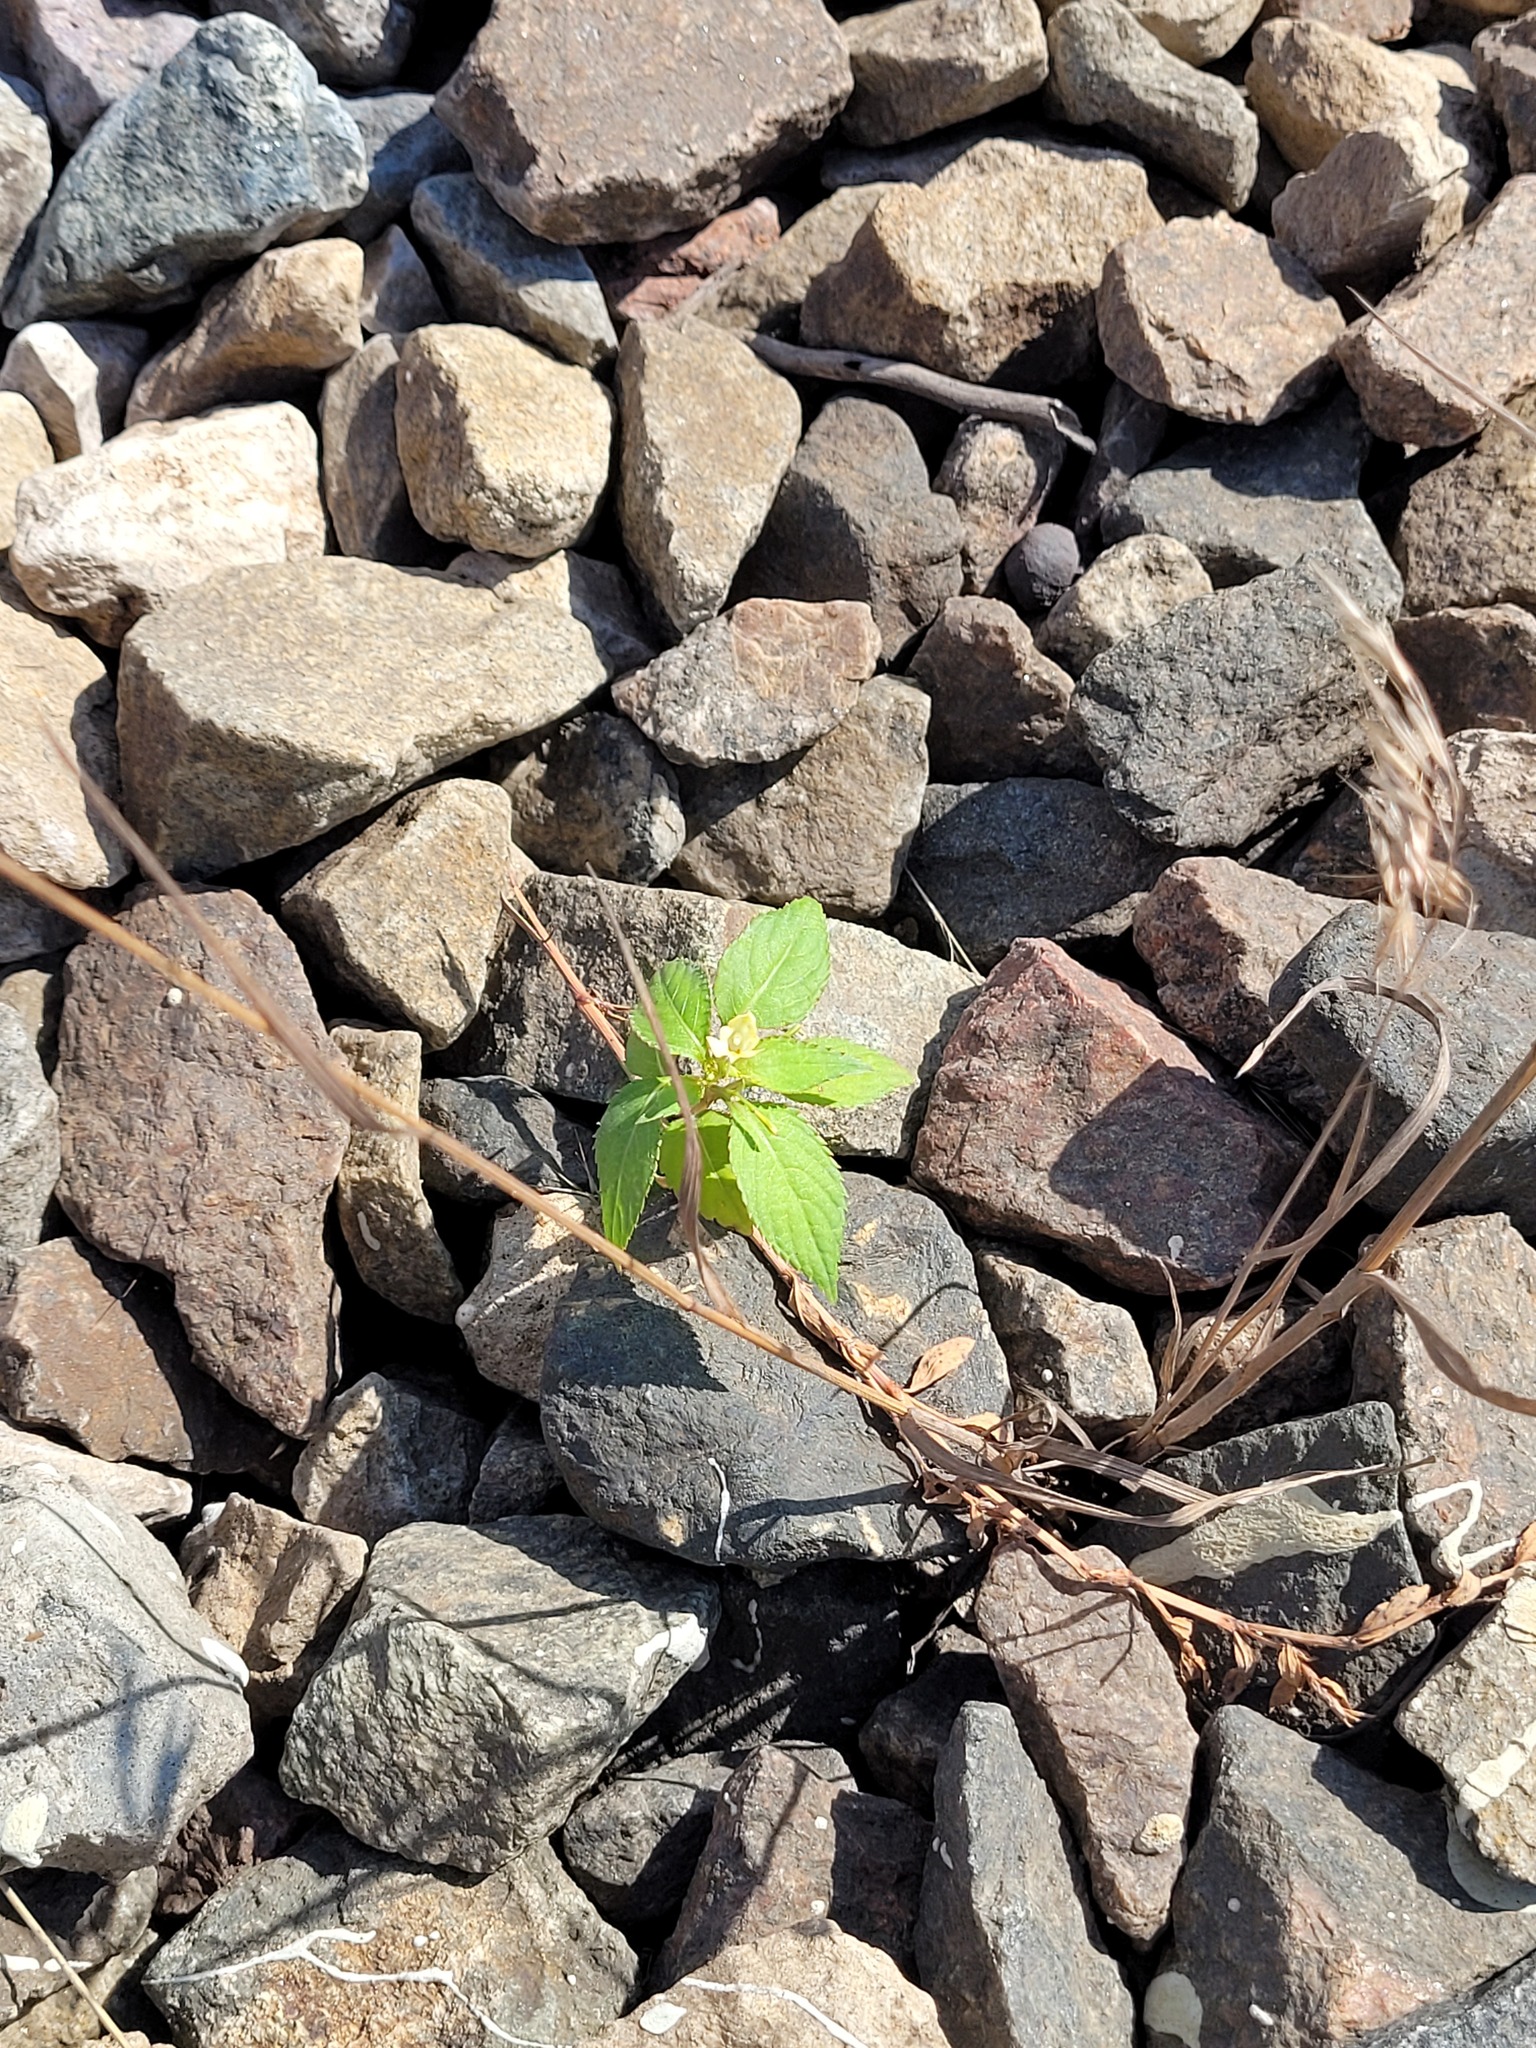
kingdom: Plantae
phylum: Tracheophyta
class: Magnoliopsida
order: Ericales
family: Balsaminaceae
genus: Impatiens
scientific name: Impatiens parviflora
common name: Small balsam
